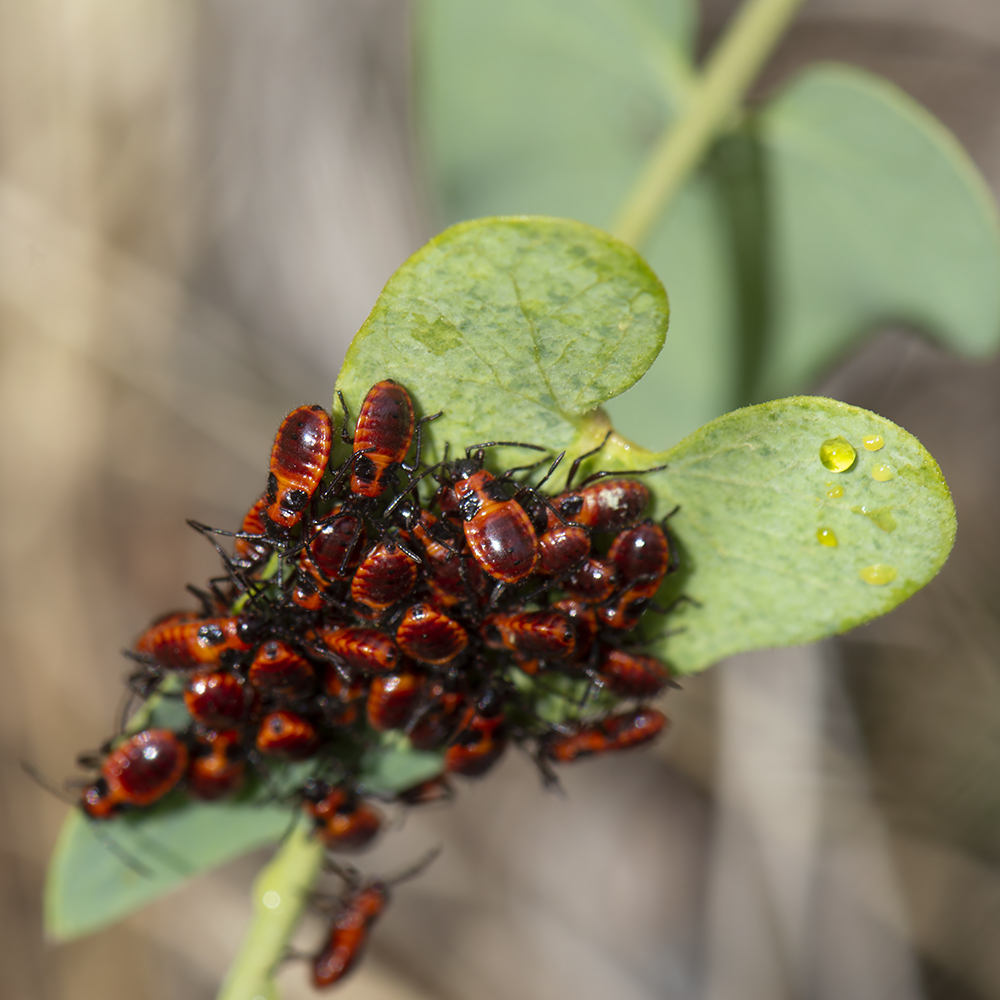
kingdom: Animalia
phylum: Arthropoda
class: Insecta
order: Hemiptera
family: Lygaeidae
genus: Tropidothorax
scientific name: Tropidothorax leucopterus
